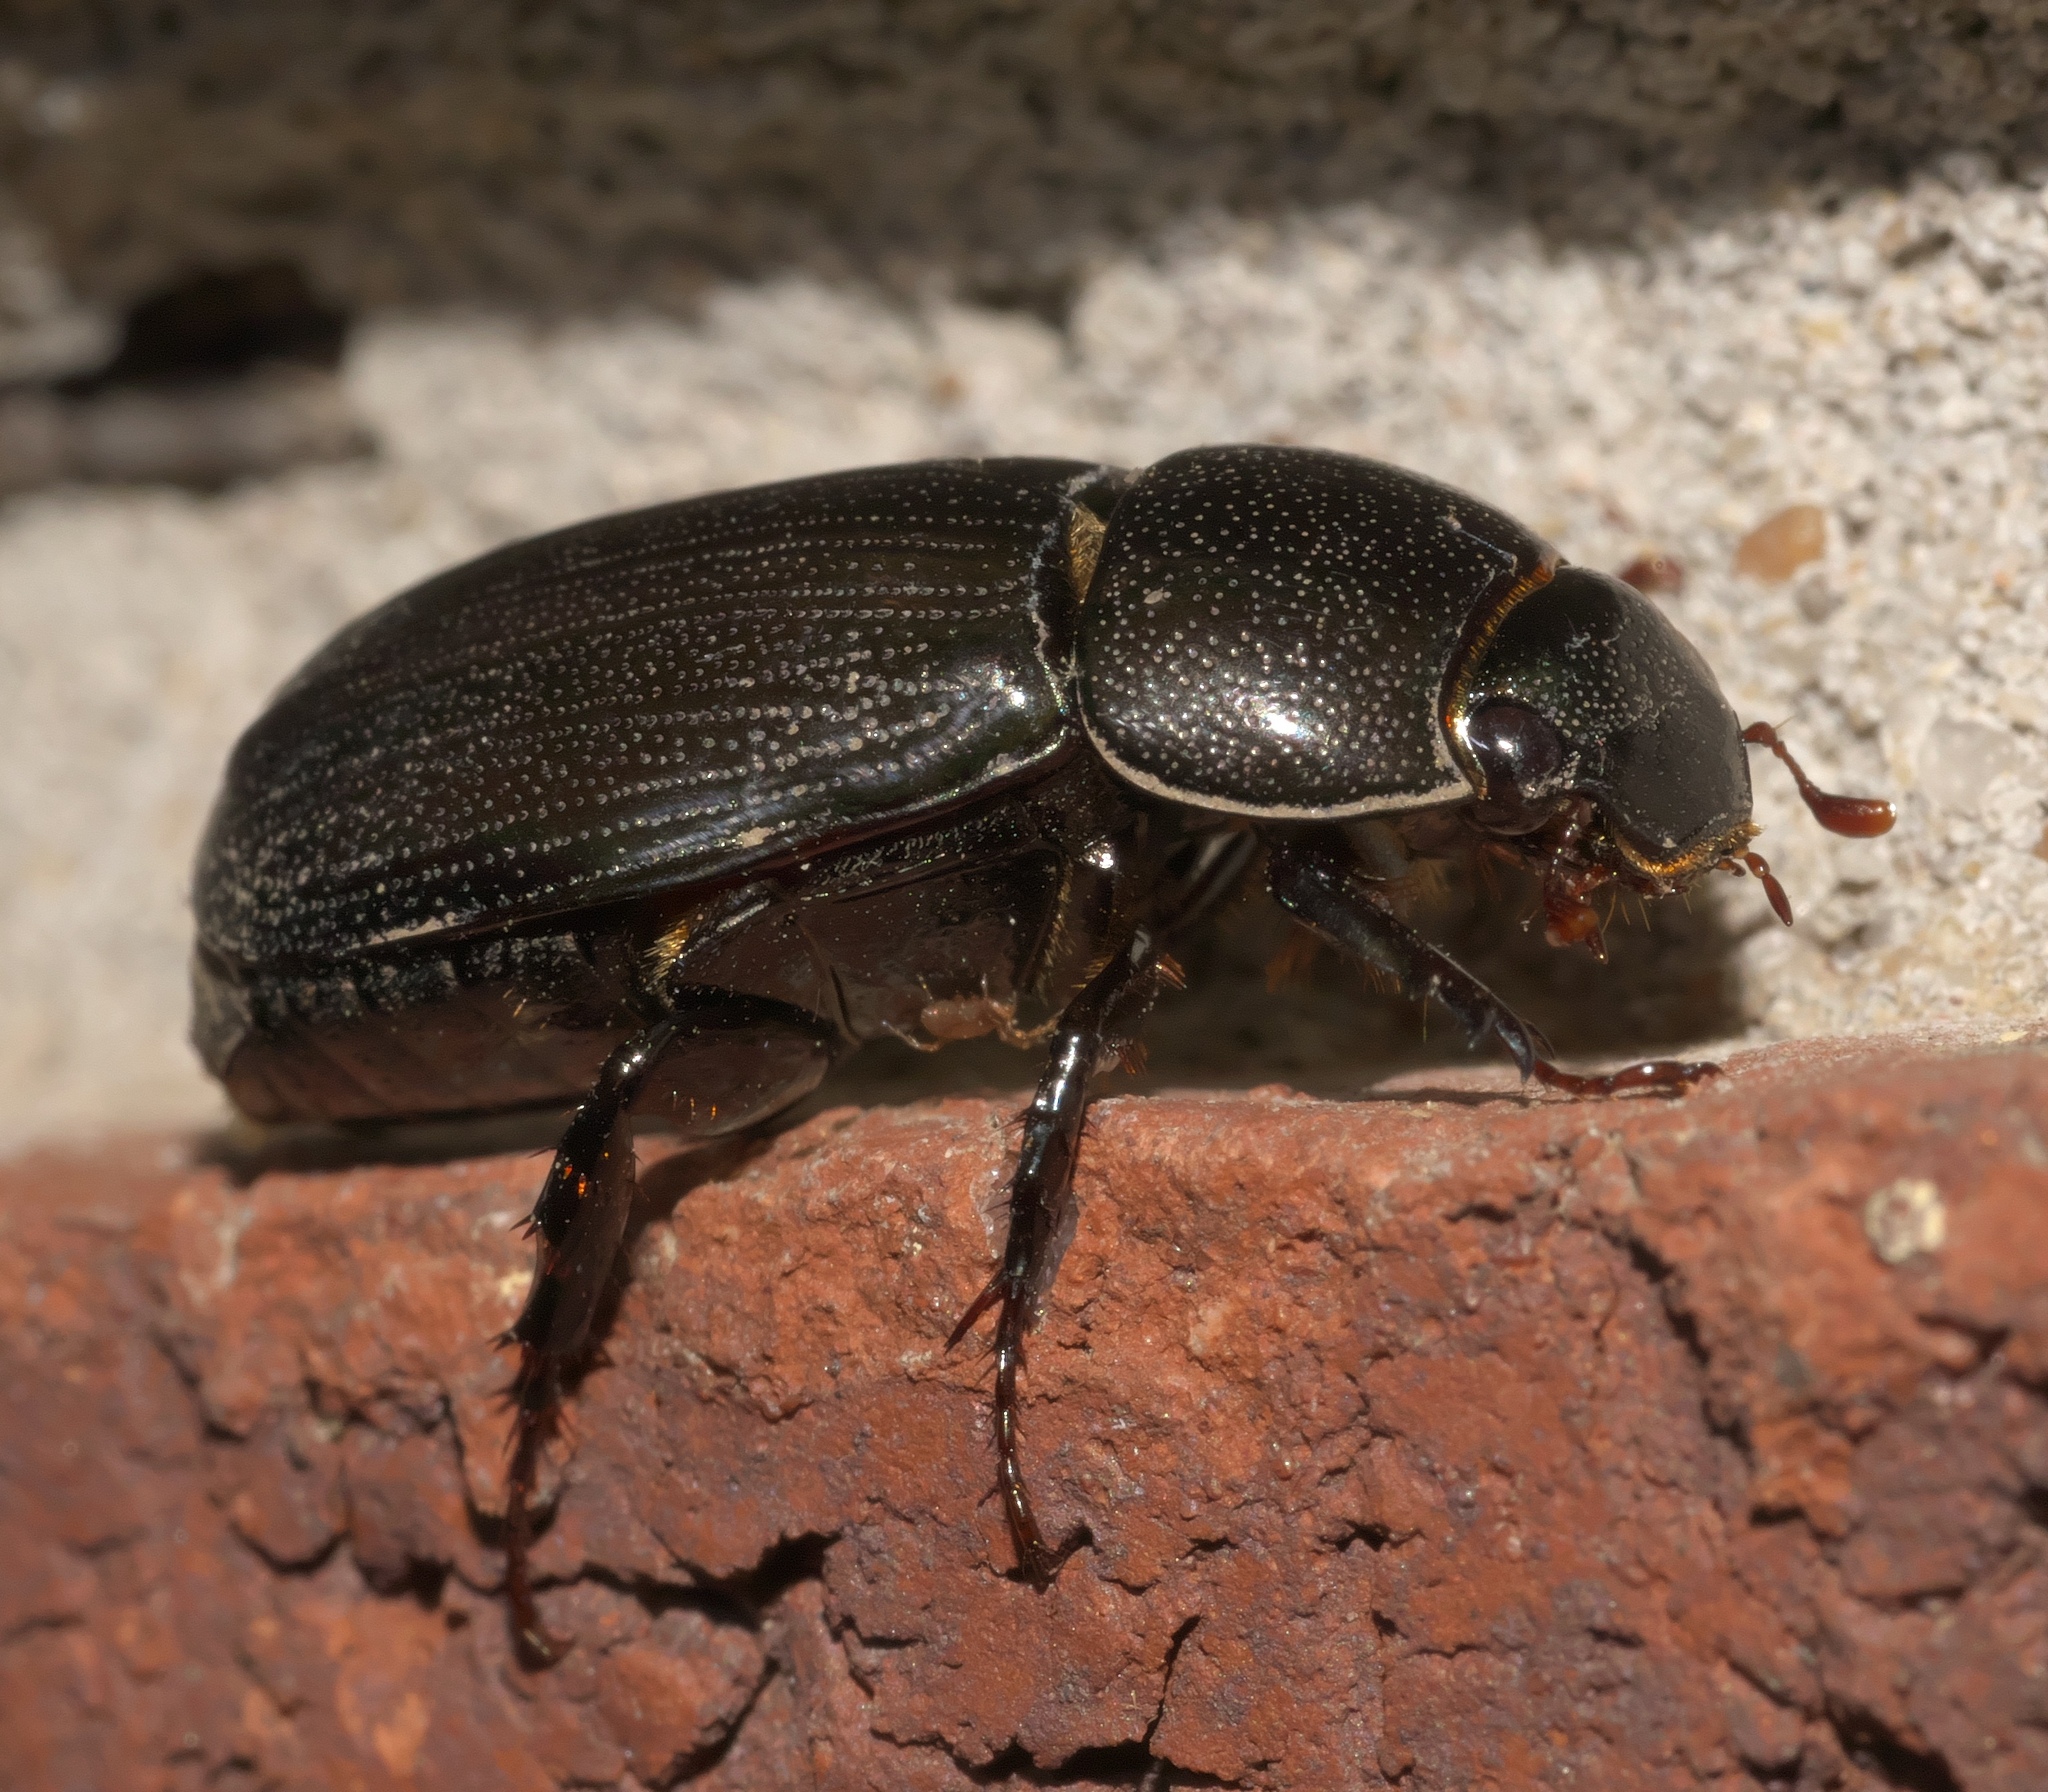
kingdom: Animalia
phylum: Arthropoda
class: Insecta
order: Coleoptera
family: Scarabaeidae
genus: Dyscinetus
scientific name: Dyscinetus morator
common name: Rice beetle
